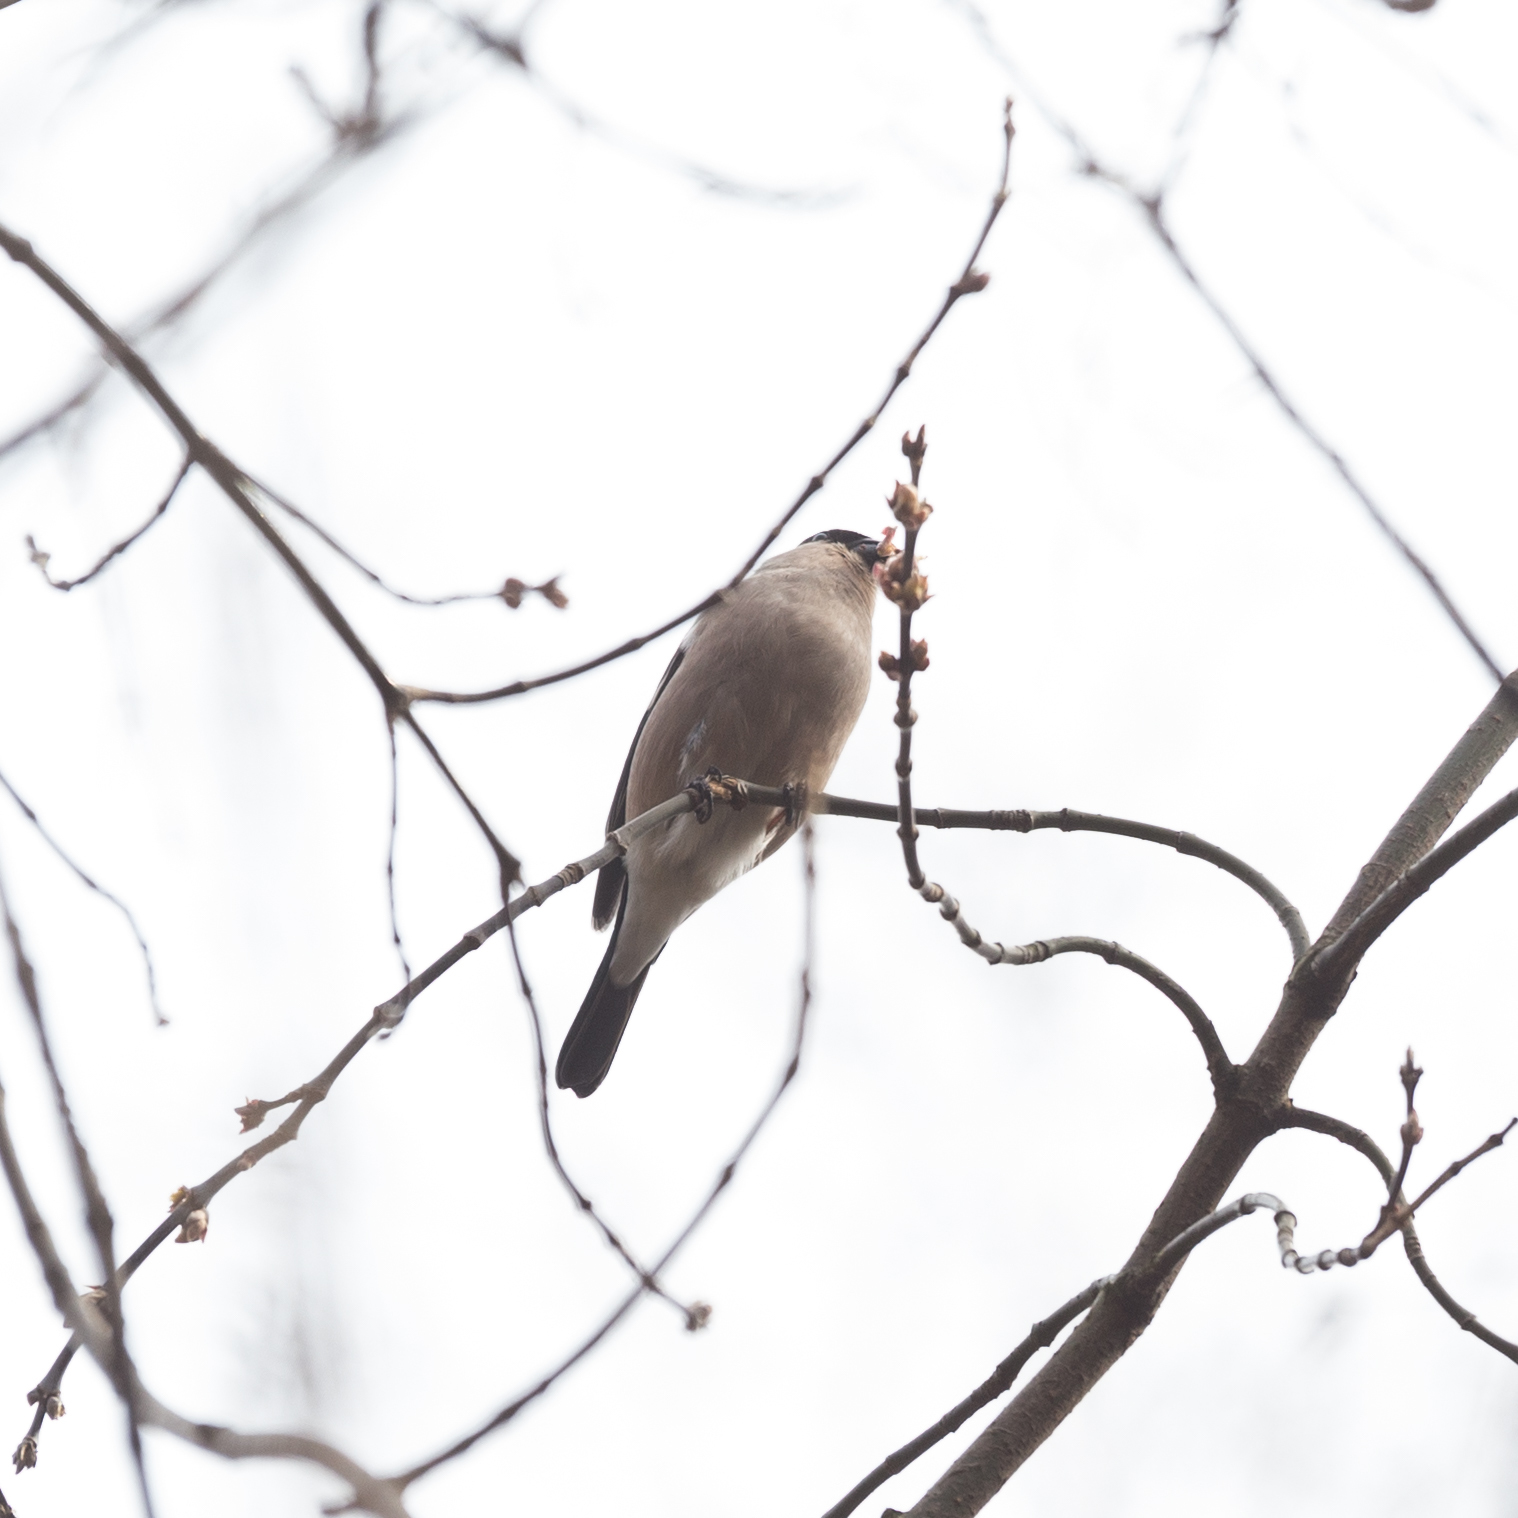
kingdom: Animalia
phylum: Chordata
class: Aves
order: Passeriformes
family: Fringillidae
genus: Pyrrhula
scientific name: Pyrrhula pyrrhula
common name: Eurasian bullfinch
